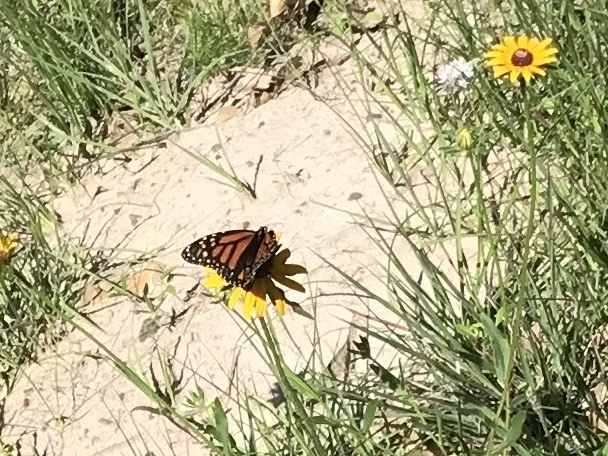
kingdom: Animalia
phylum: Arthropoda
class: Insecta
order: Lepidoptera
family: Nymphalidae
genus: Danaus
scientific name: Danaus plexippus
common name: Monarch
